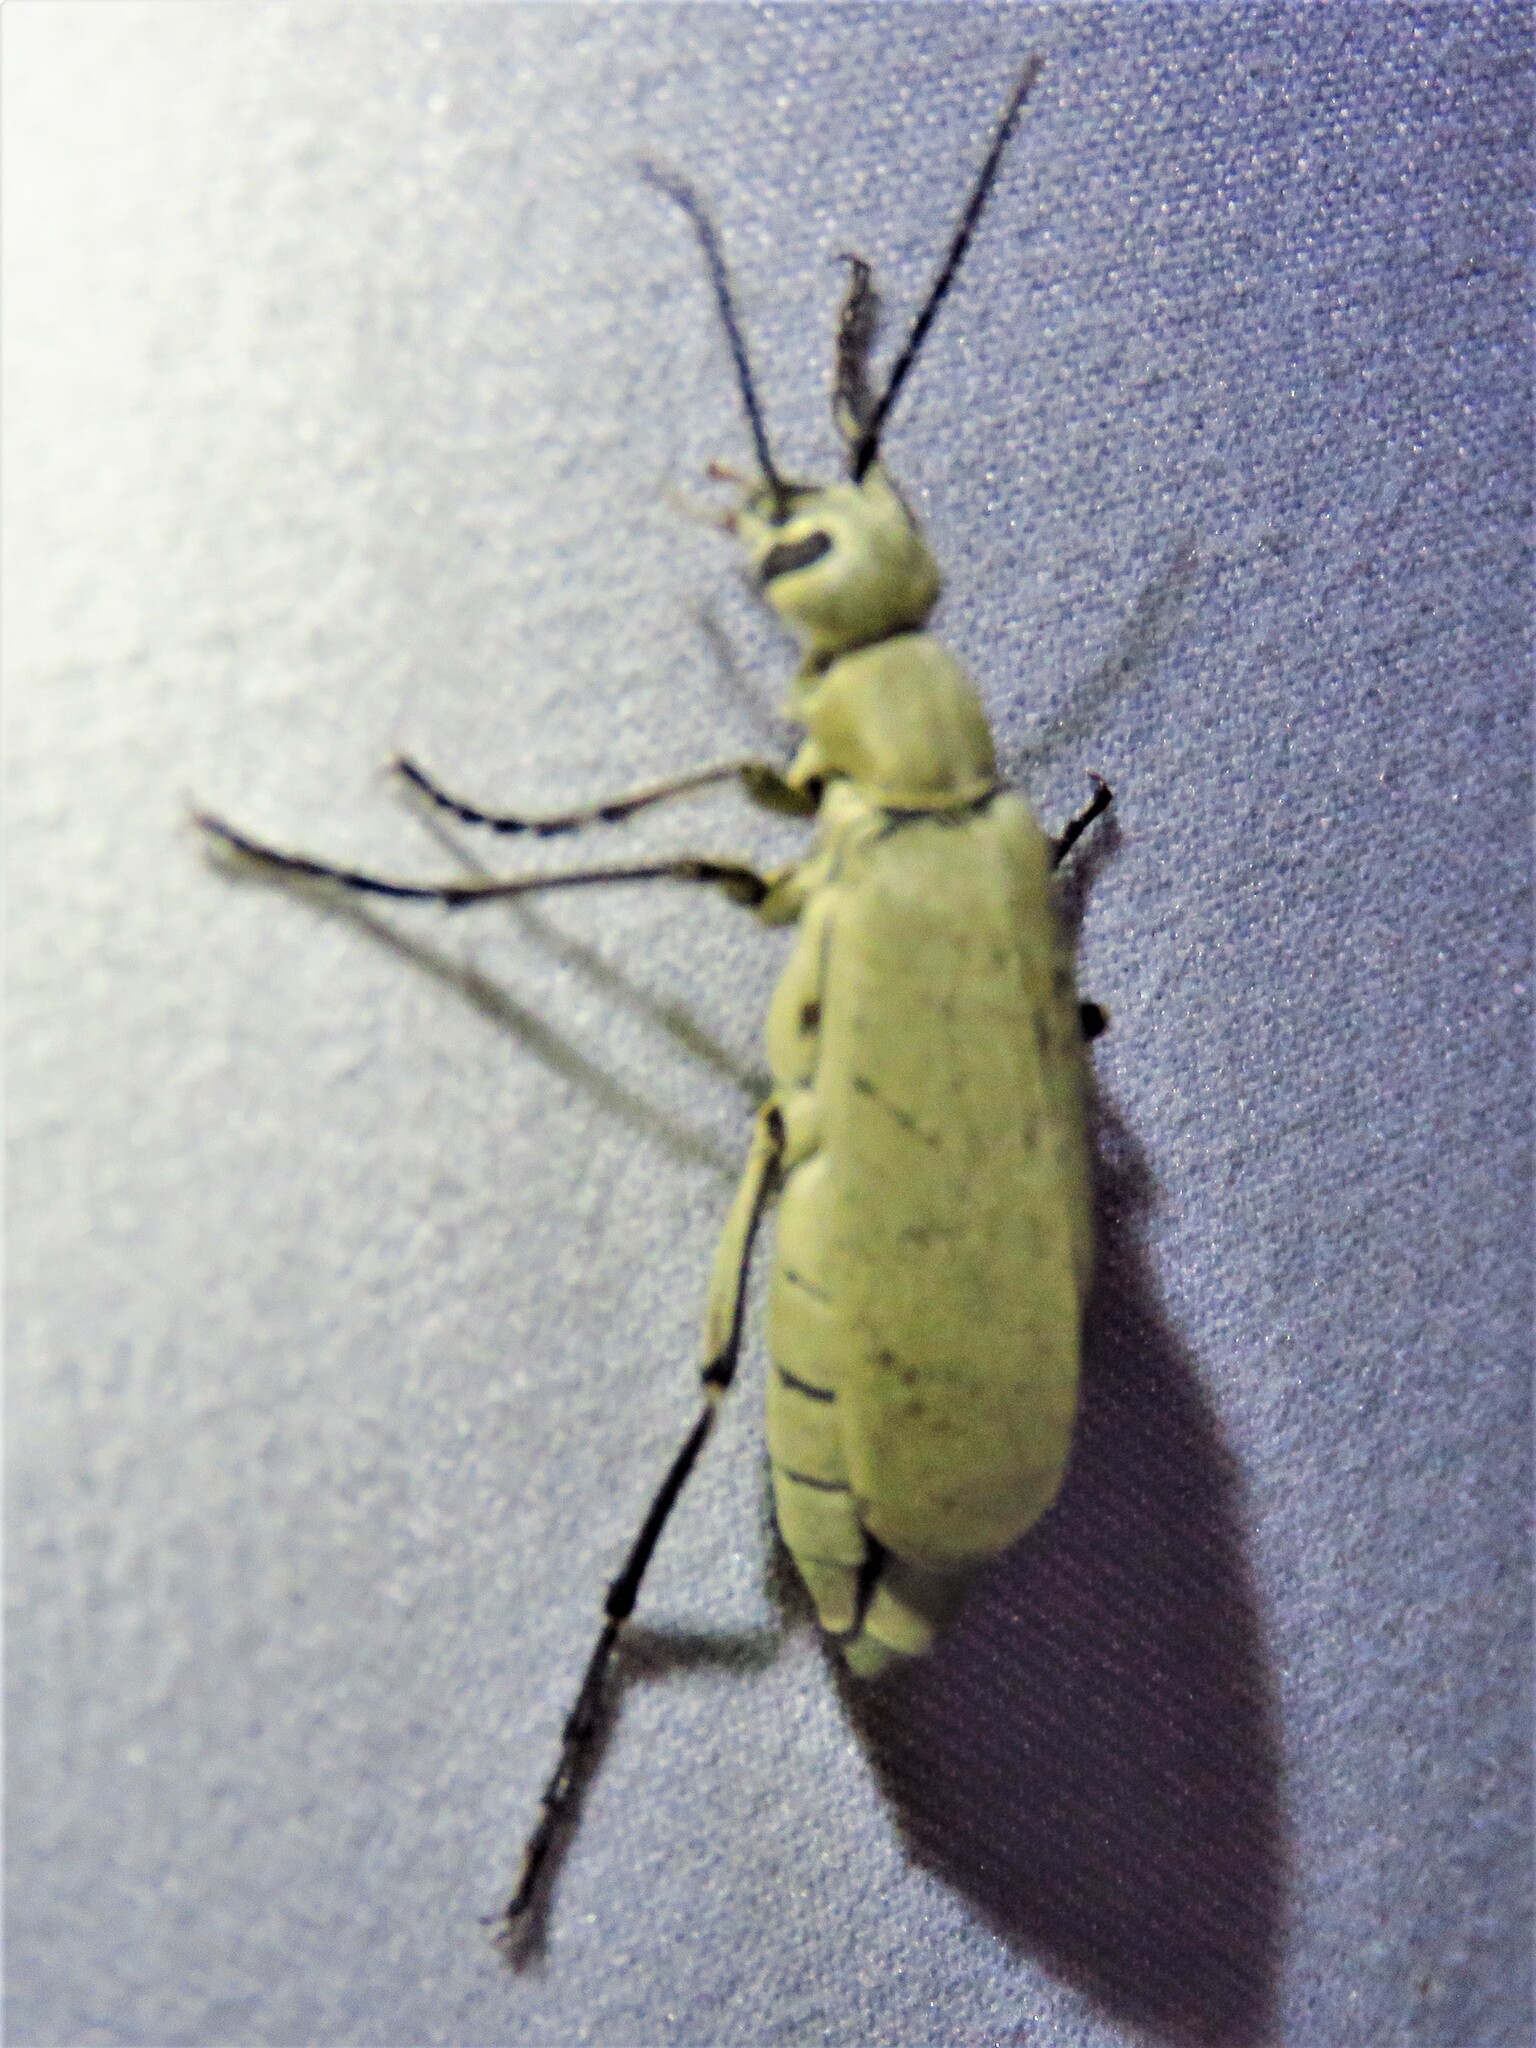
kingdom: Animalia
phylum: Arthropoda
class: Insecta
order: Coleoptera
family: Meloidae
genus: Epicauta
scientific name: Epicauta immaculata
